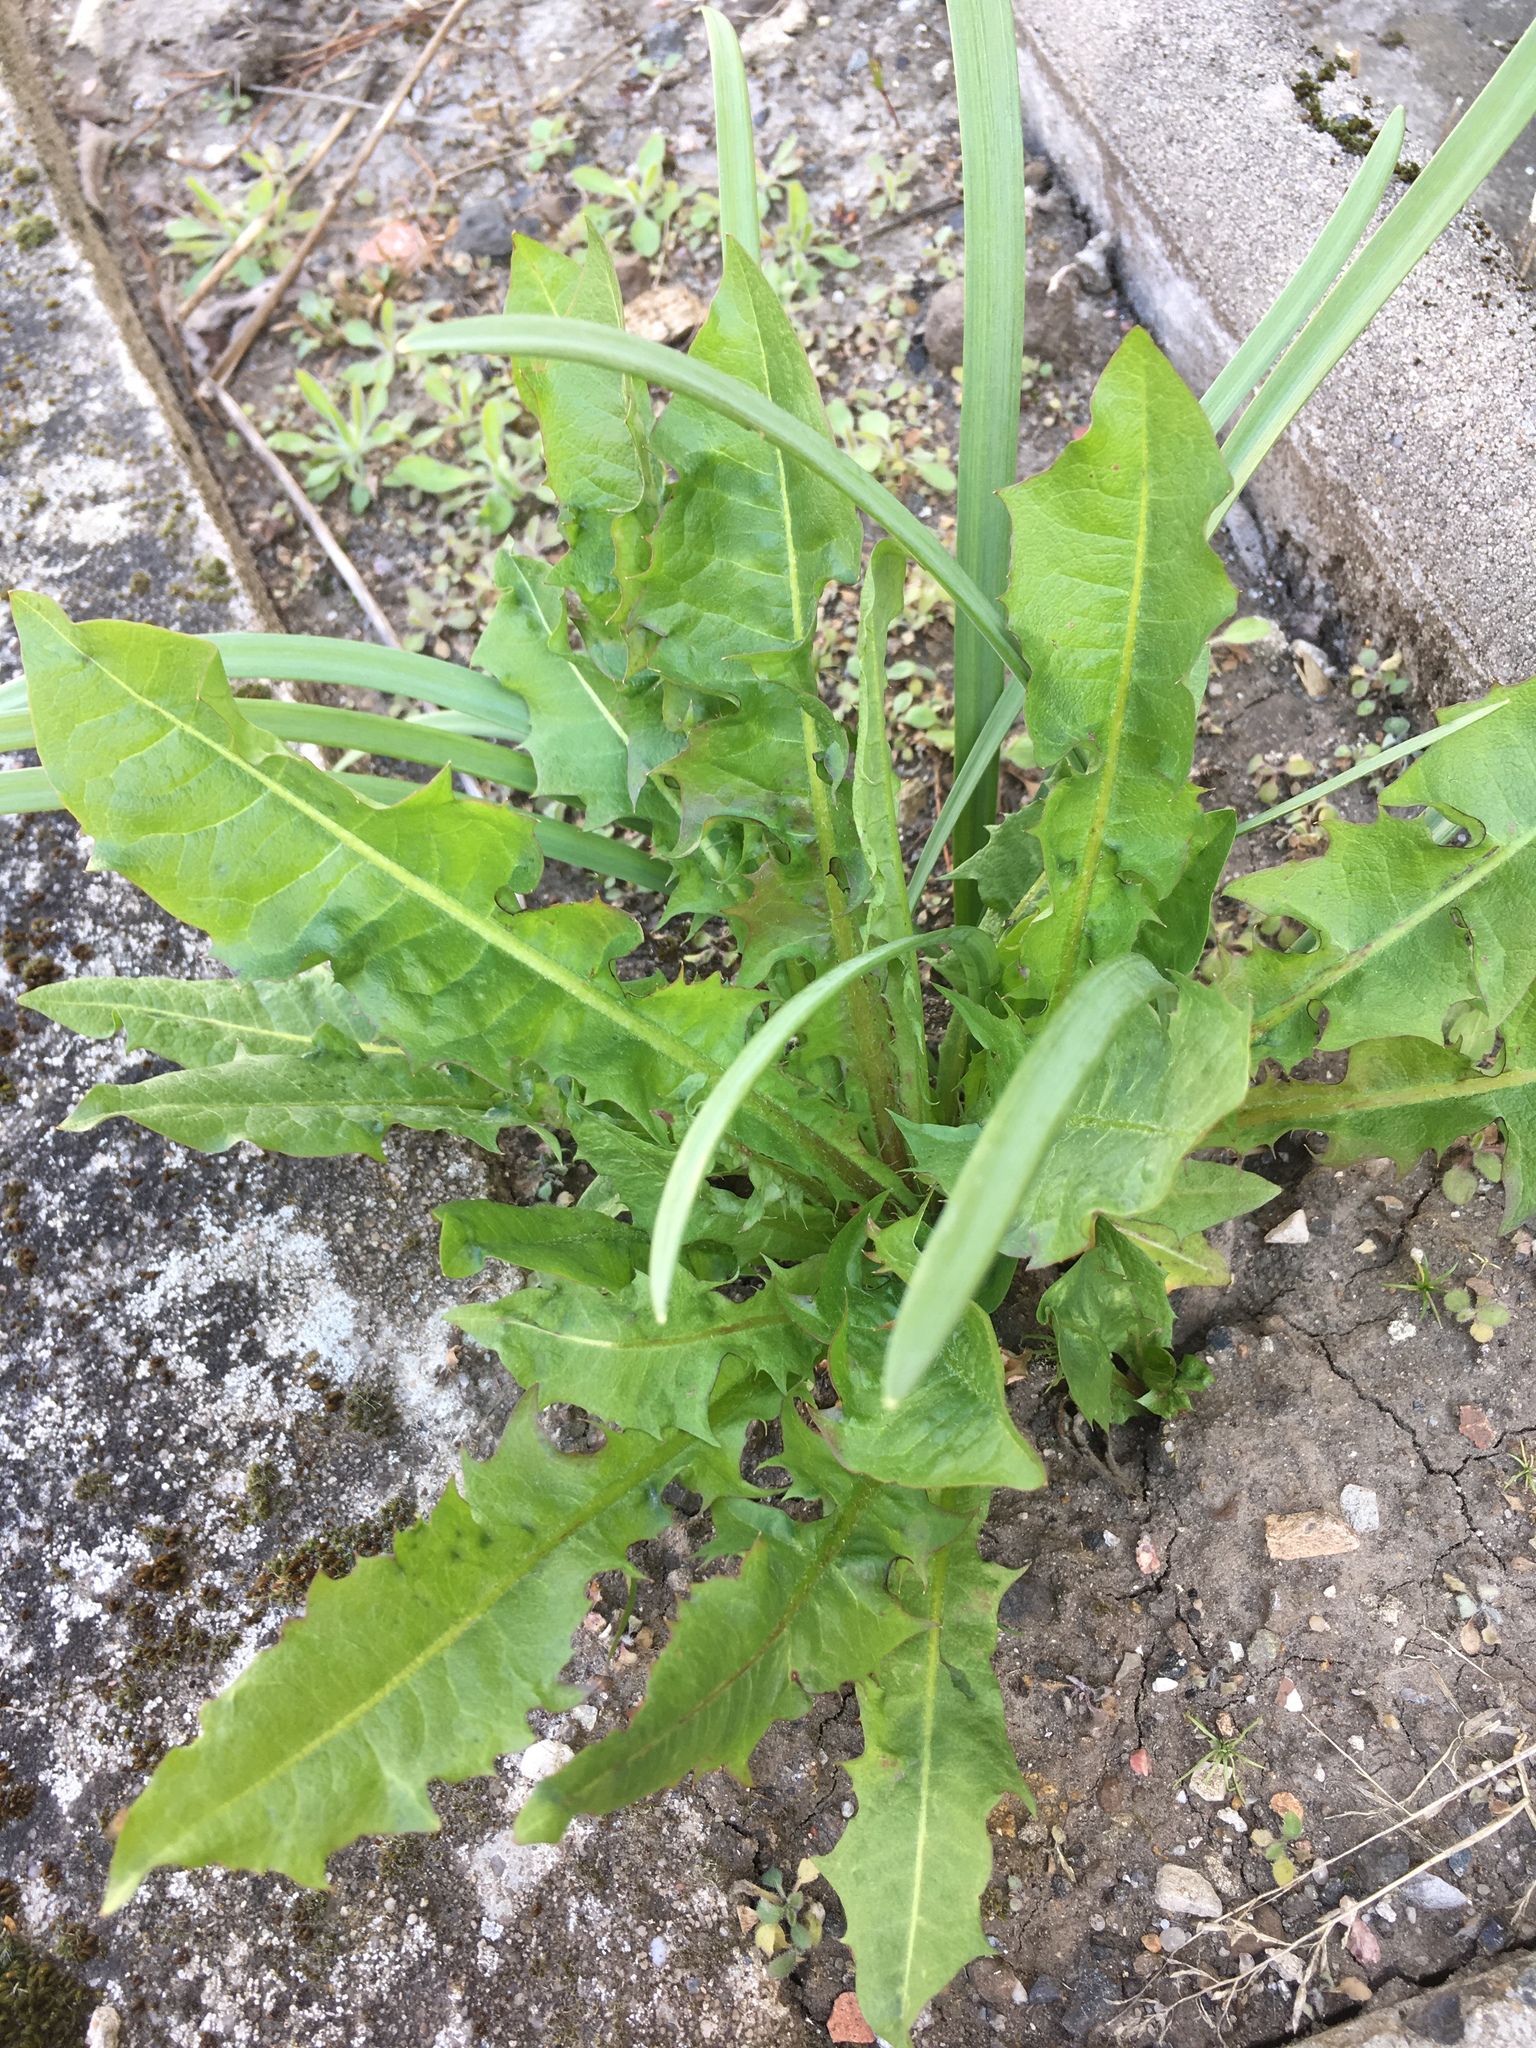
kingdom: Plantae
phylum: Tracheophyta
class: Magnoliopsida
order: Asterales
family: Asteraceae
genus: Taraxacum
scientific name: Taraxacum officinale
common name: Common dandelion
